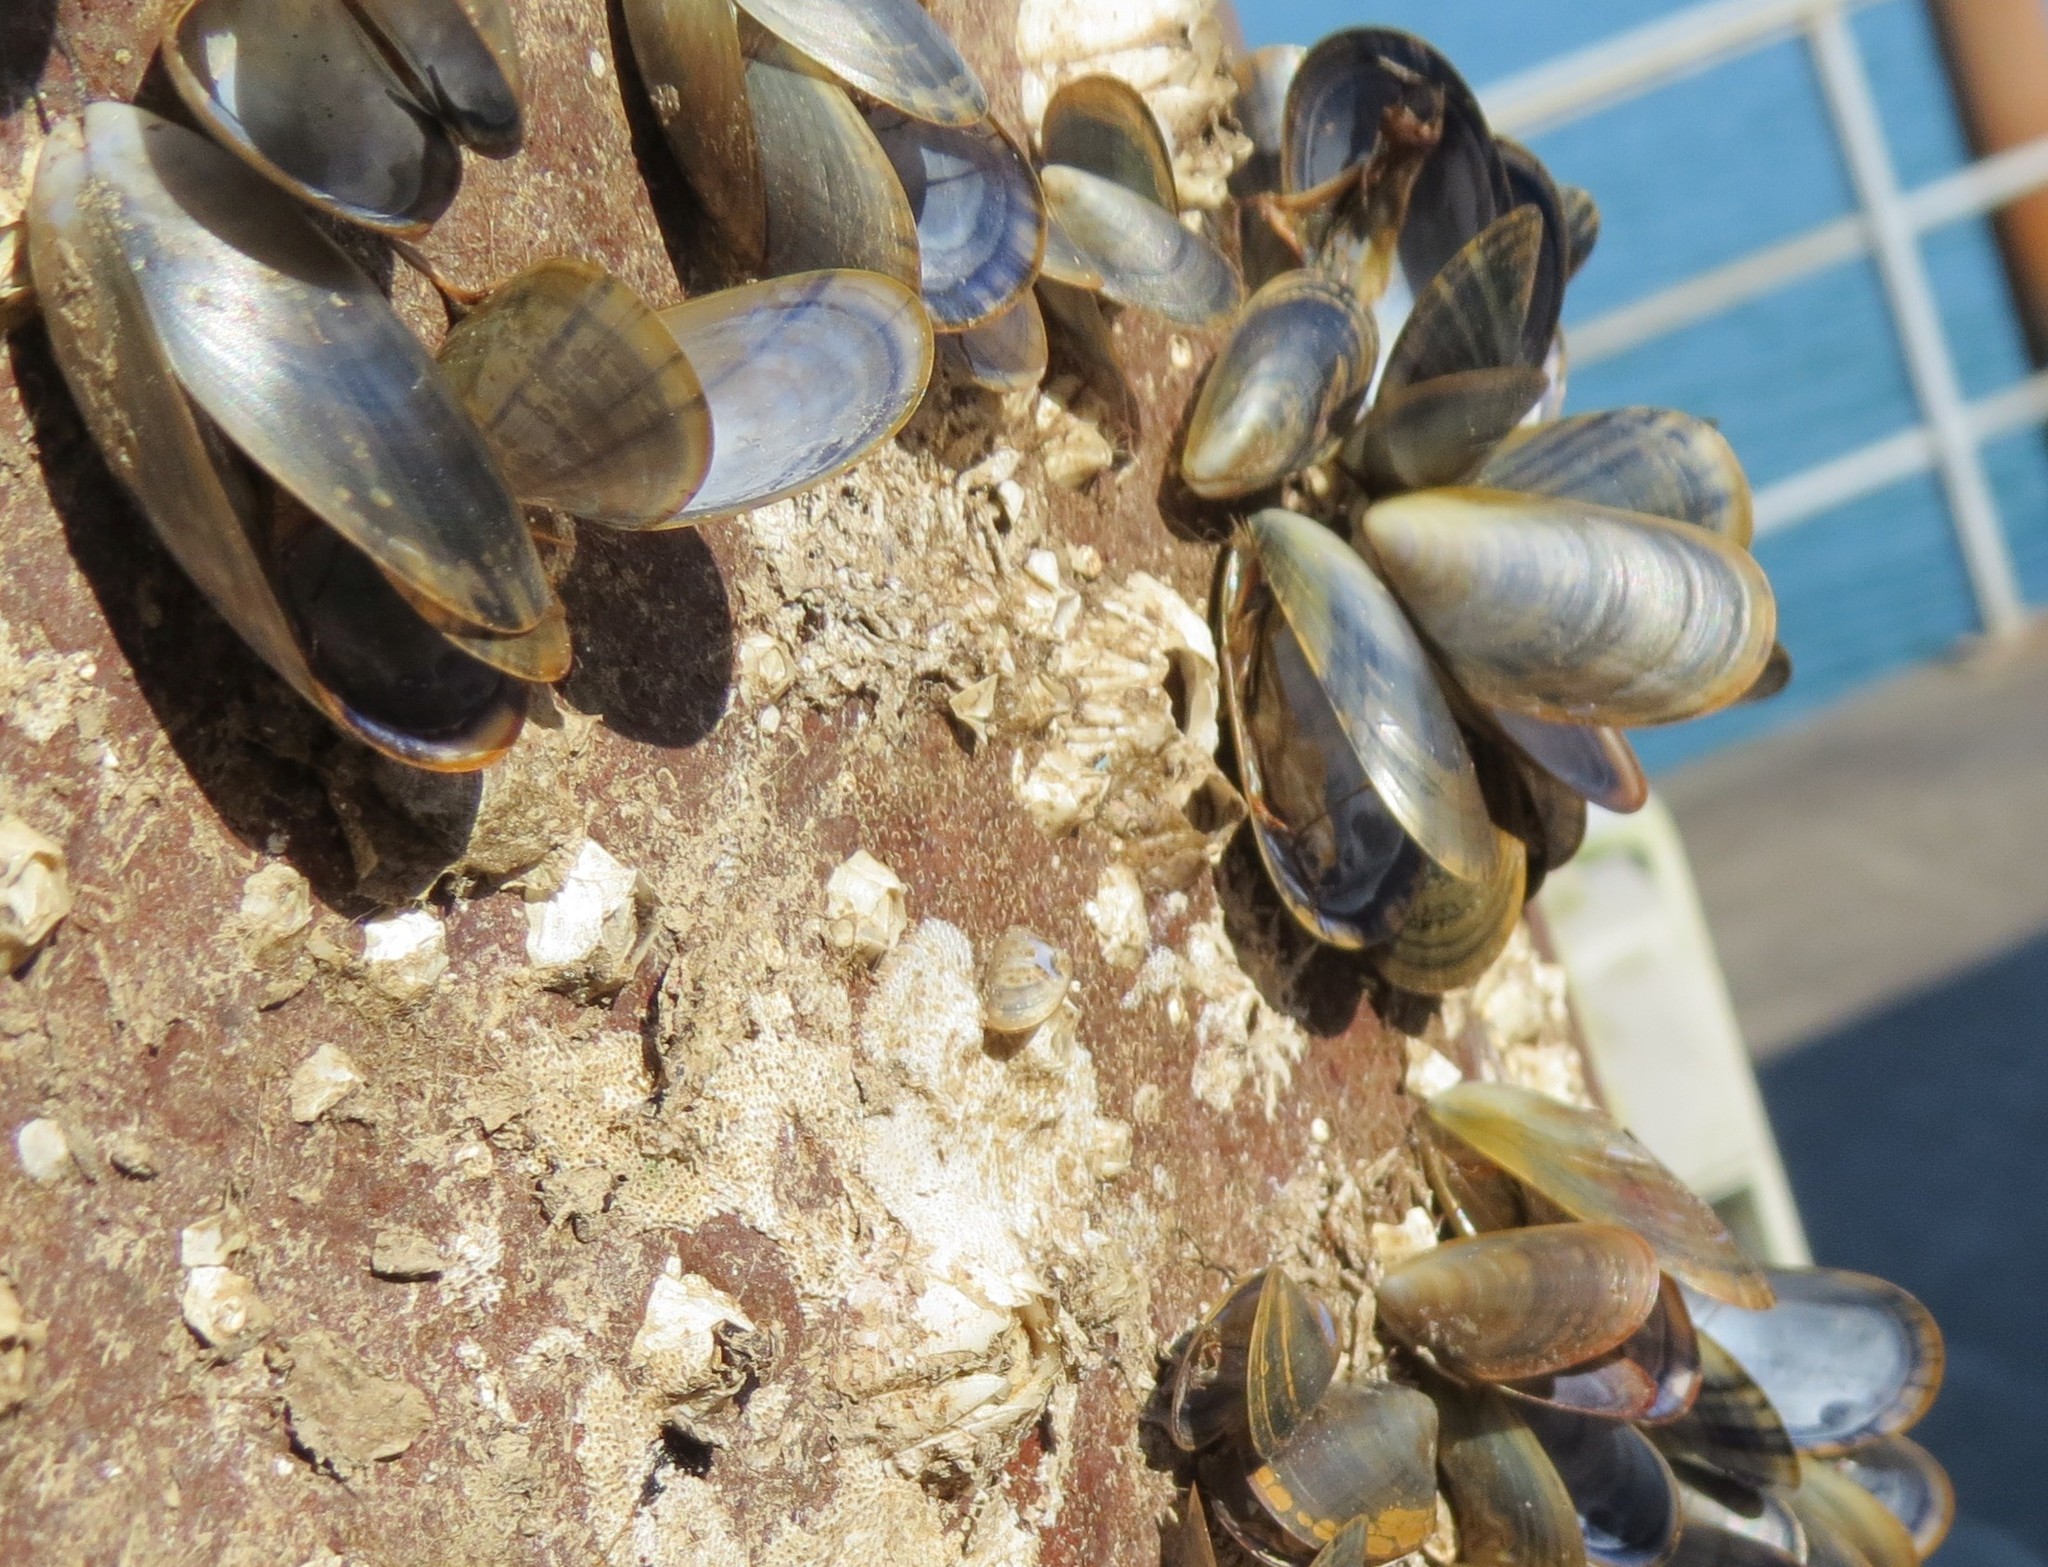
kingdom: Animalia
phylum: Mollusca
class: Bivalvia
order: Mytilida
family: Mytilidae
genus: Mytilus
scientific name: Mytilus edulis
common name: Blue mussel
